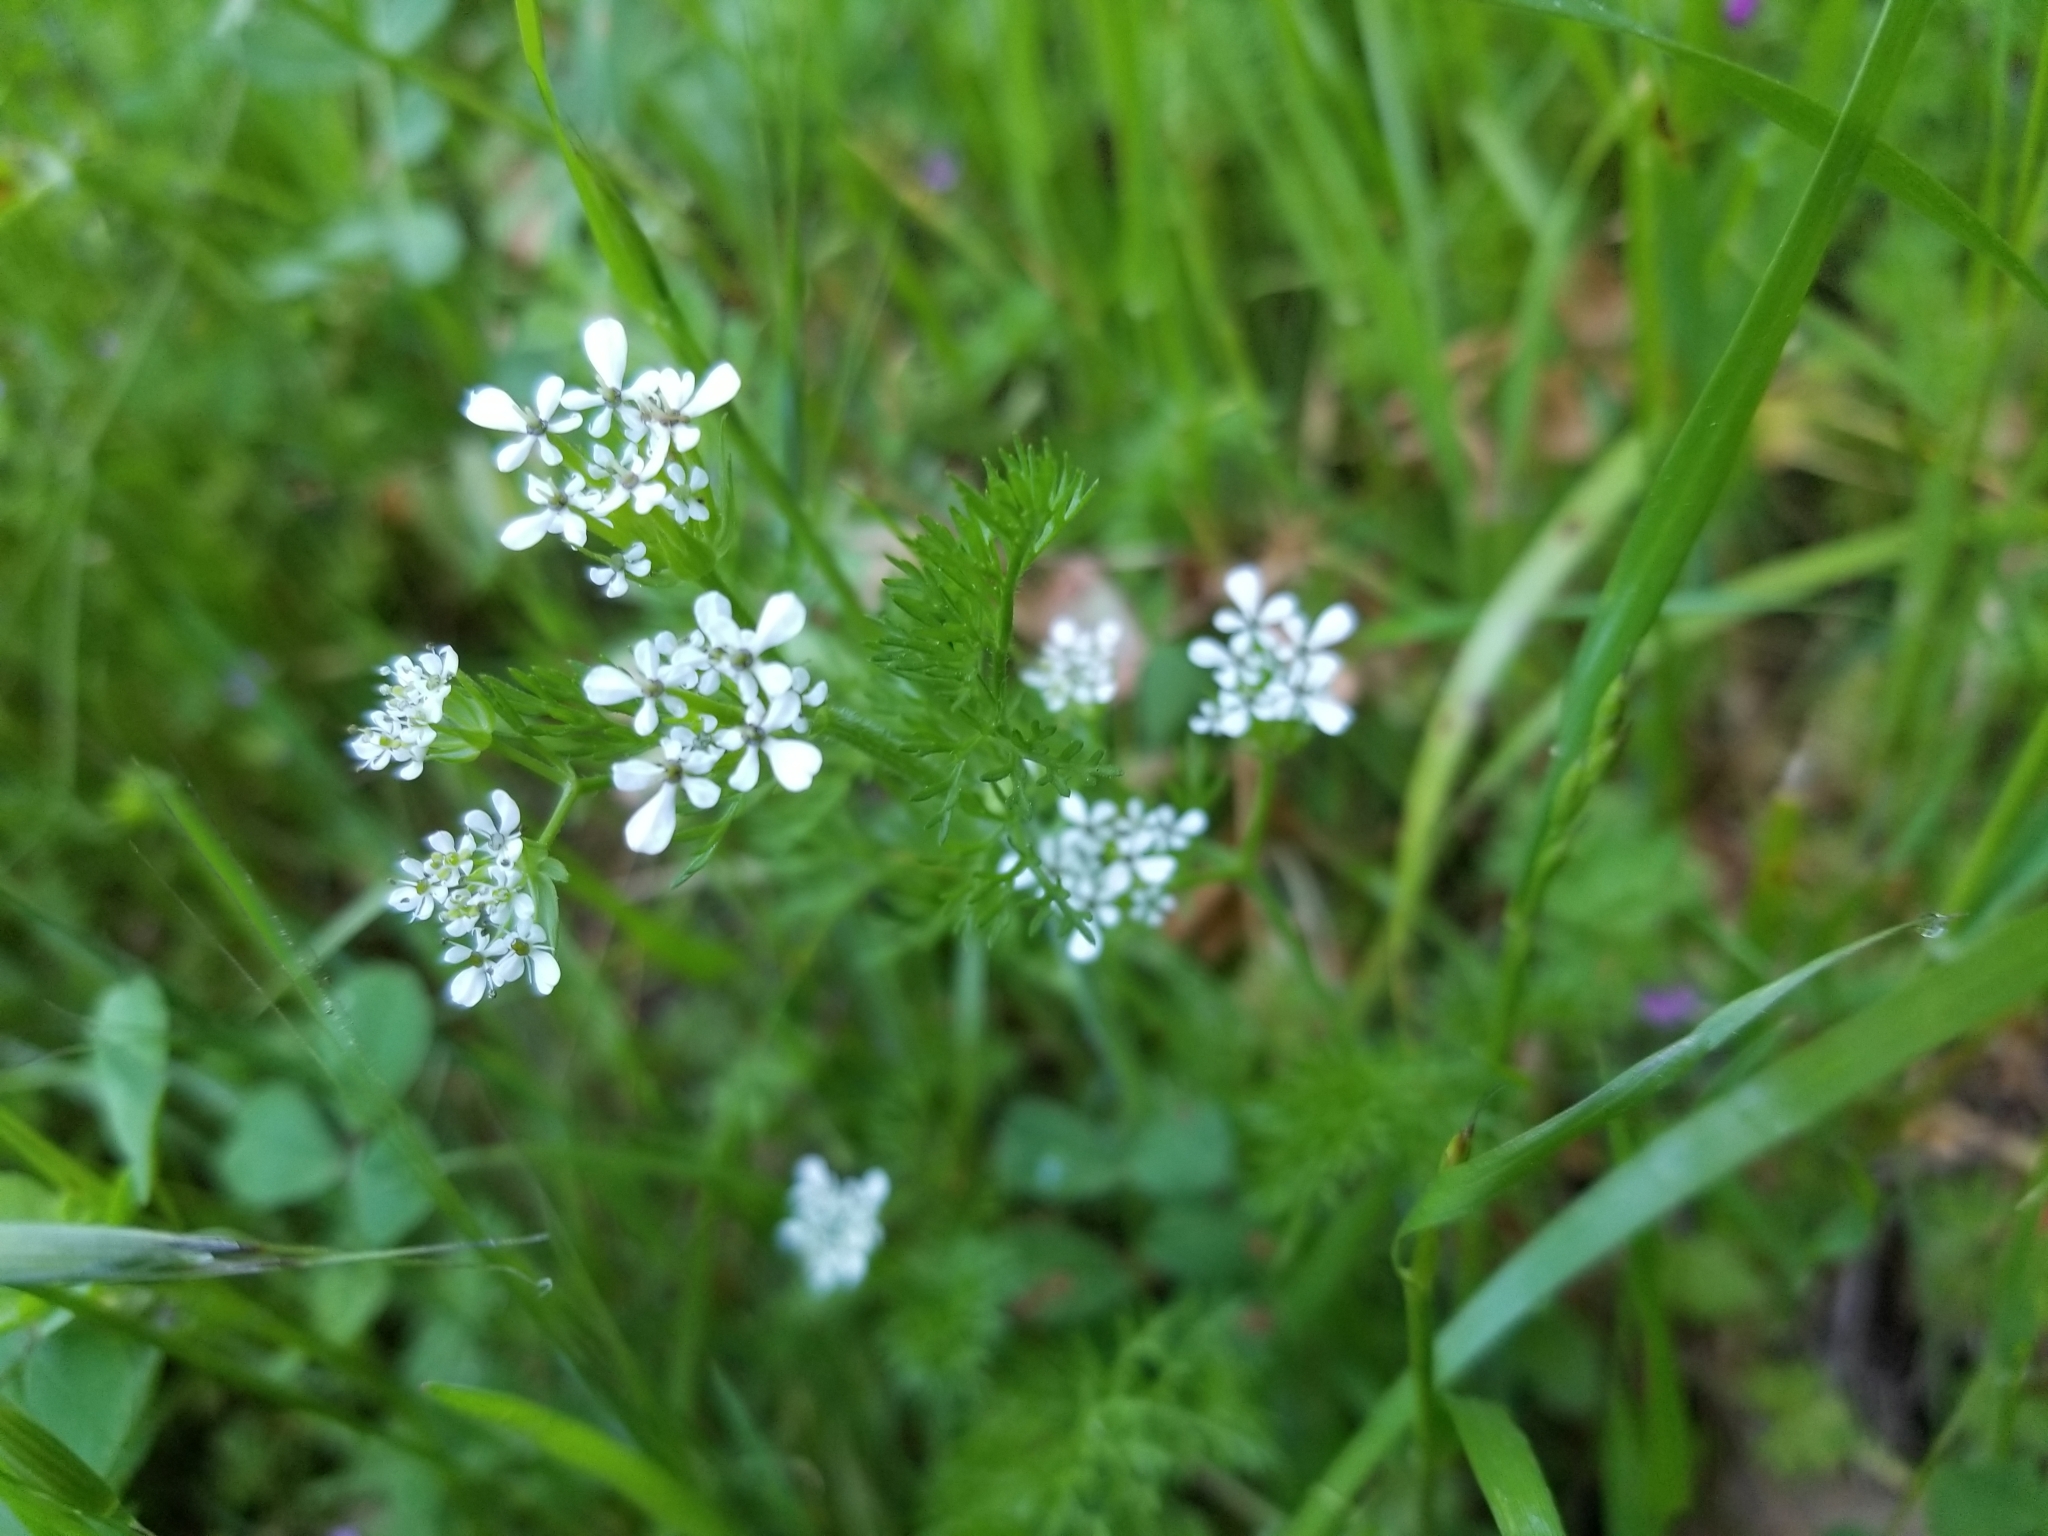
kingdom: Plantae
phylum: Tracheophyta
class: Magnoliopsida
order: Apiales
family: Apiaceae
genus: Scandix
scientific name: Scandix pecten-veneris
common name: Shepherd's-needle
